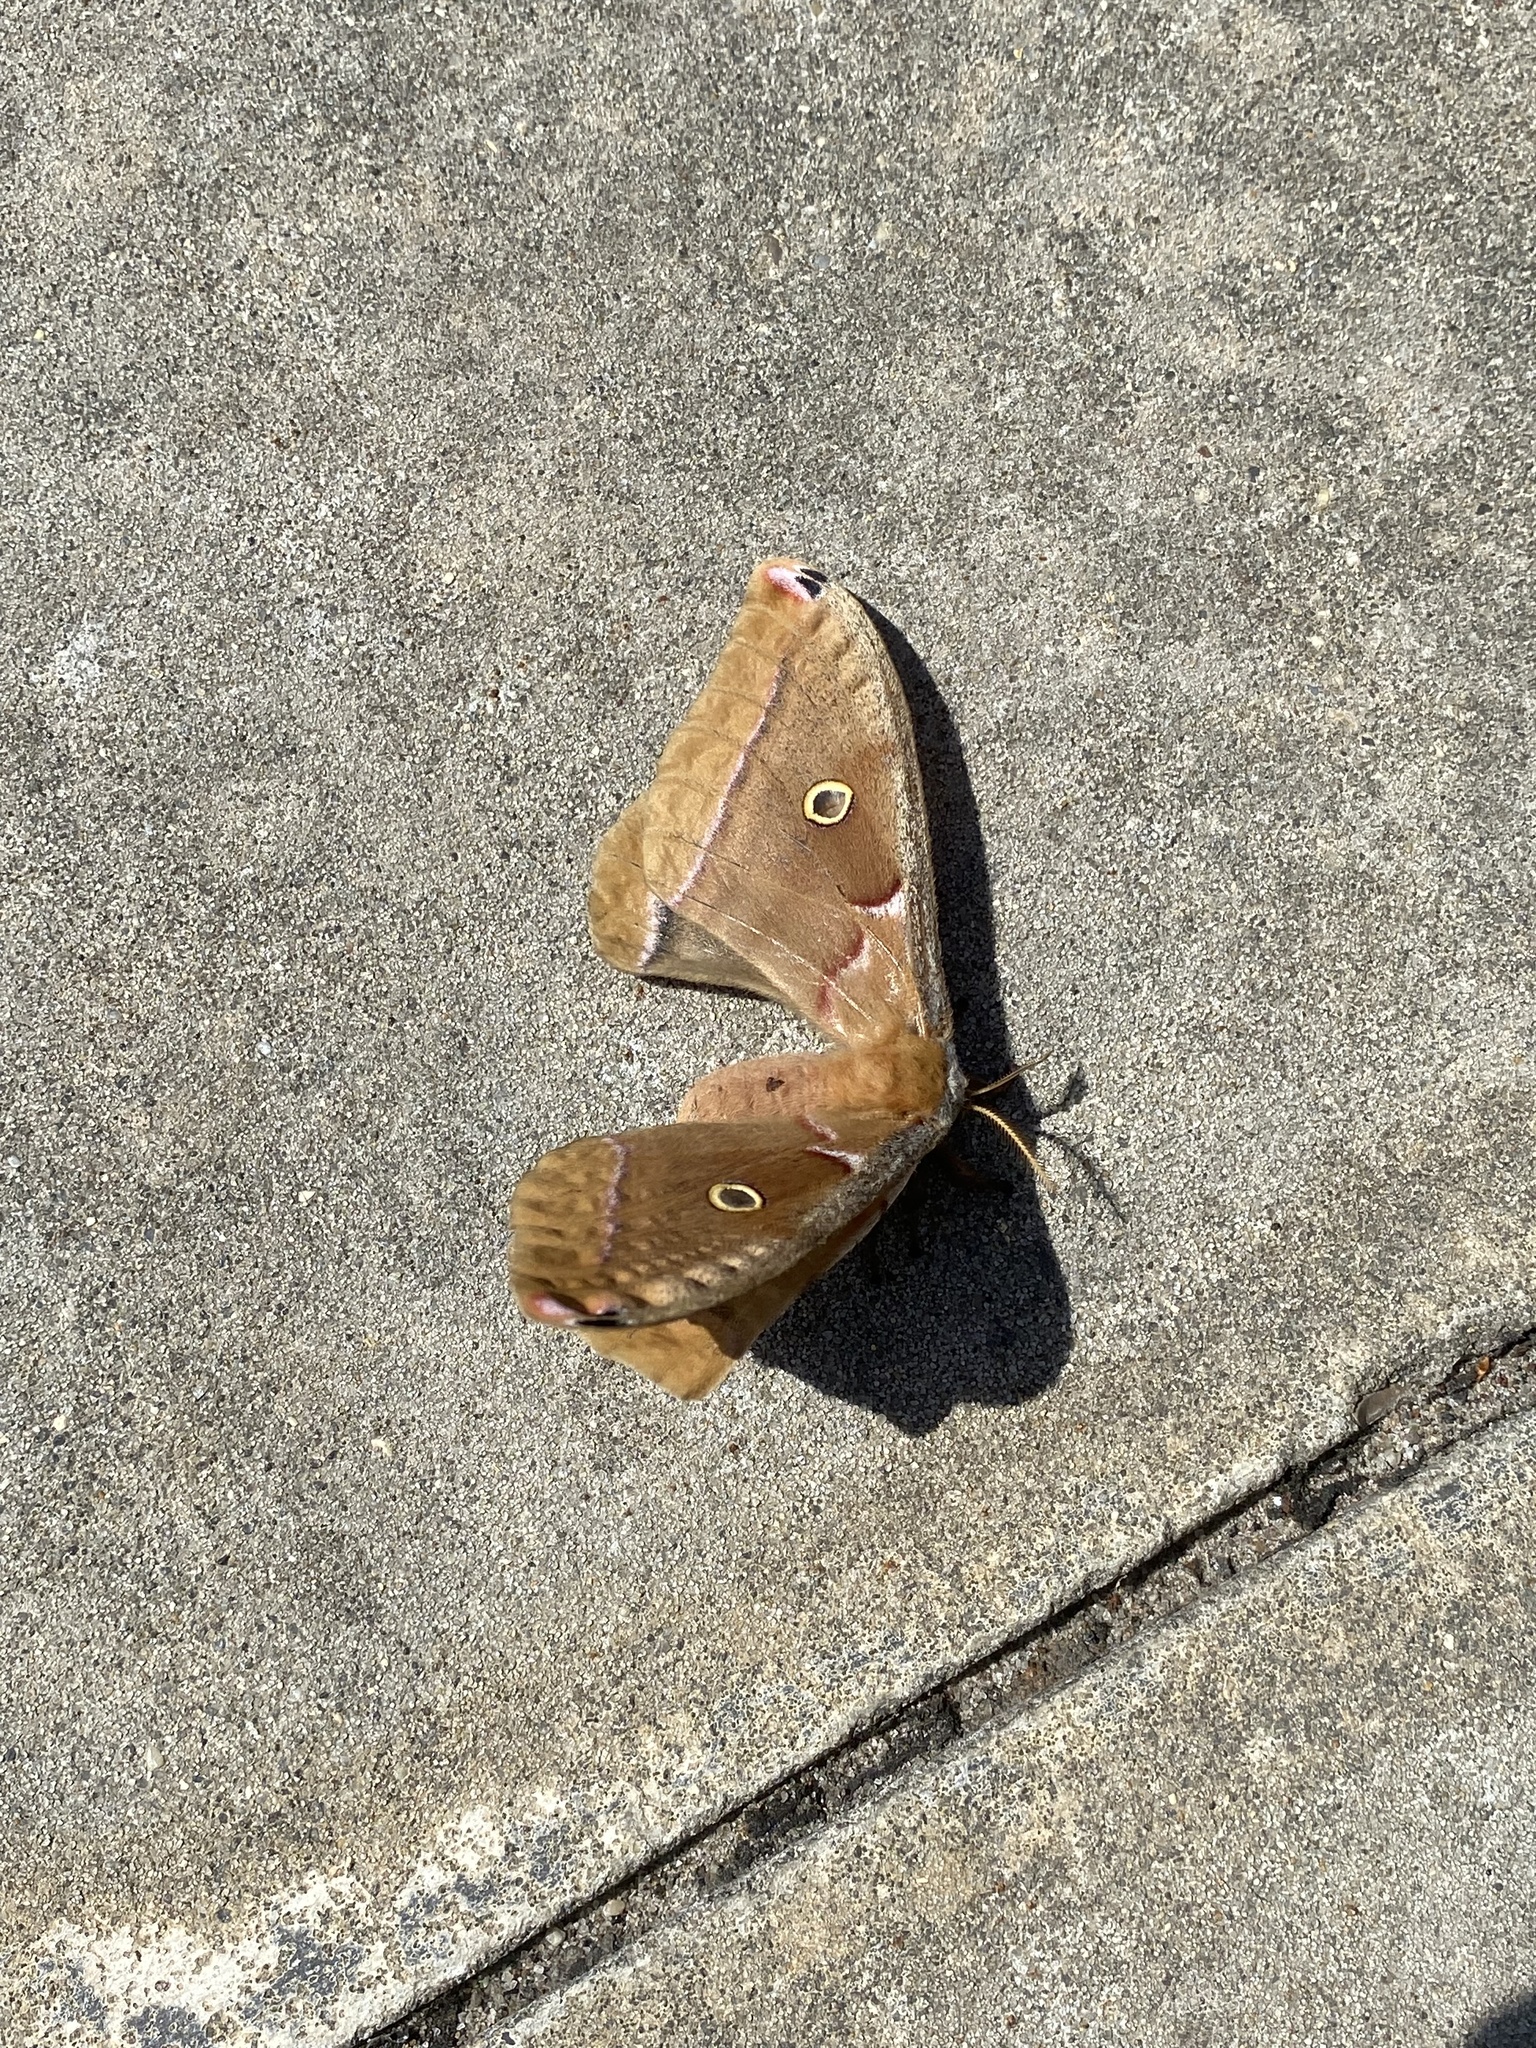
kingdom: Animalia
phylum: Arthropoda
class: Insecta
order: Lepidoptera
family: Saturniidae
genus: Antheraea
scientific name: Antheraea polyphemus
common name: Polyphemus moth
